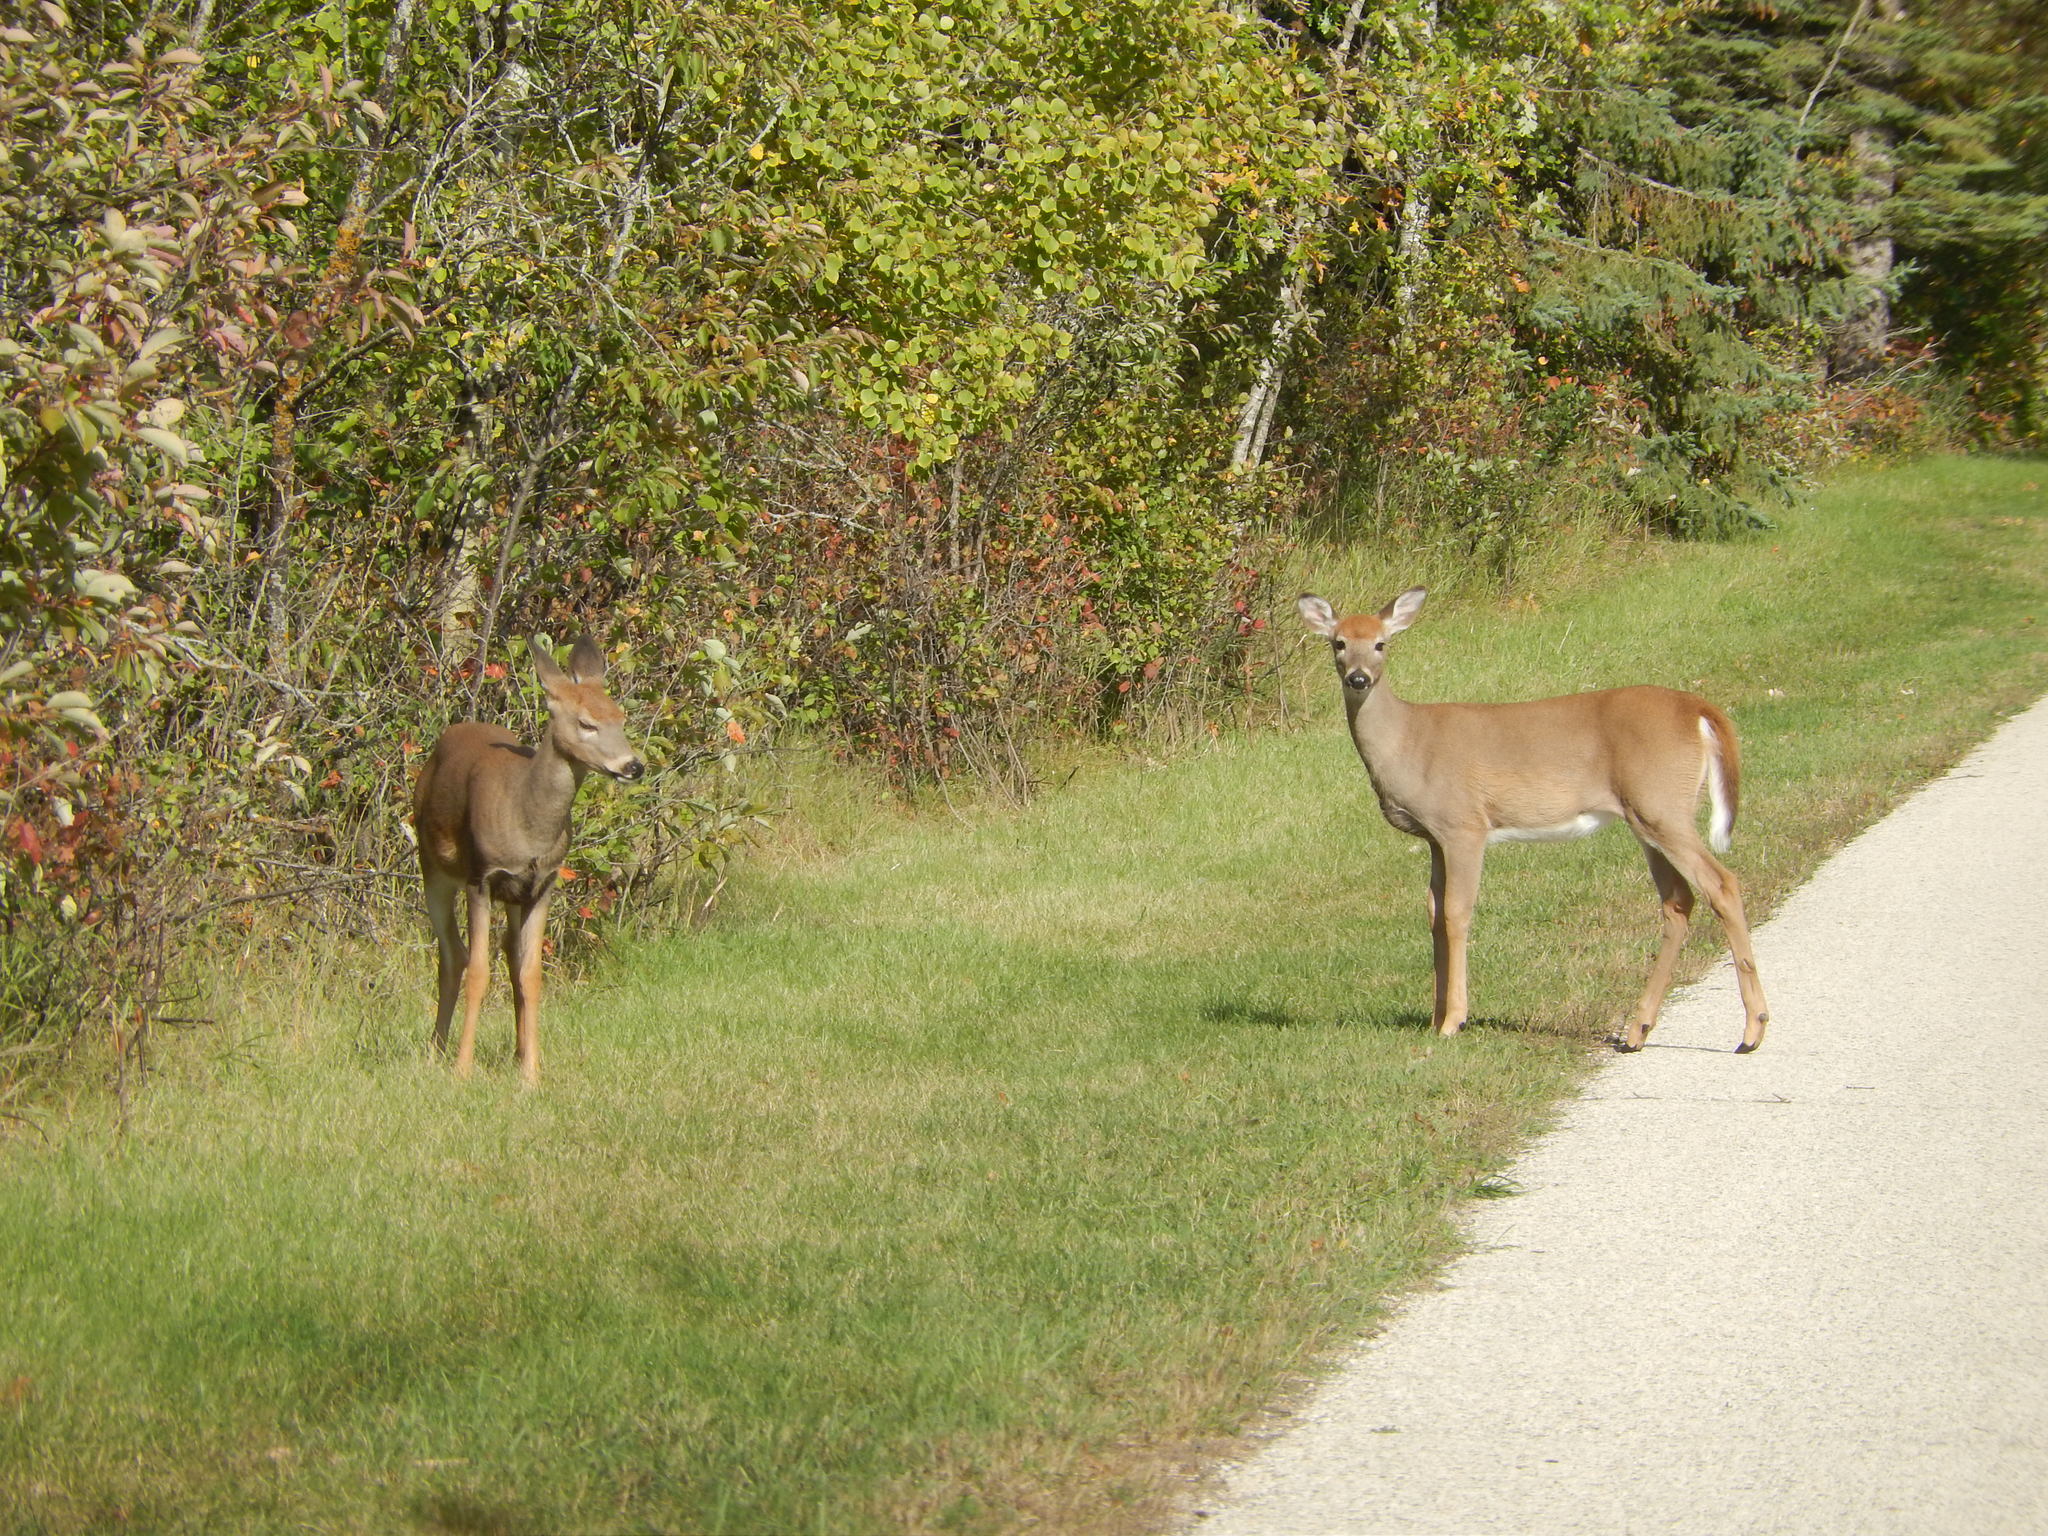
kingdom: Animalia
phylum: Chordata
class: Mammalia
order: Artiodactyla
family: Cervidae
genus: Odocoileus
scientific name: Odocoileus virginianus
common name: White-tailed deer
